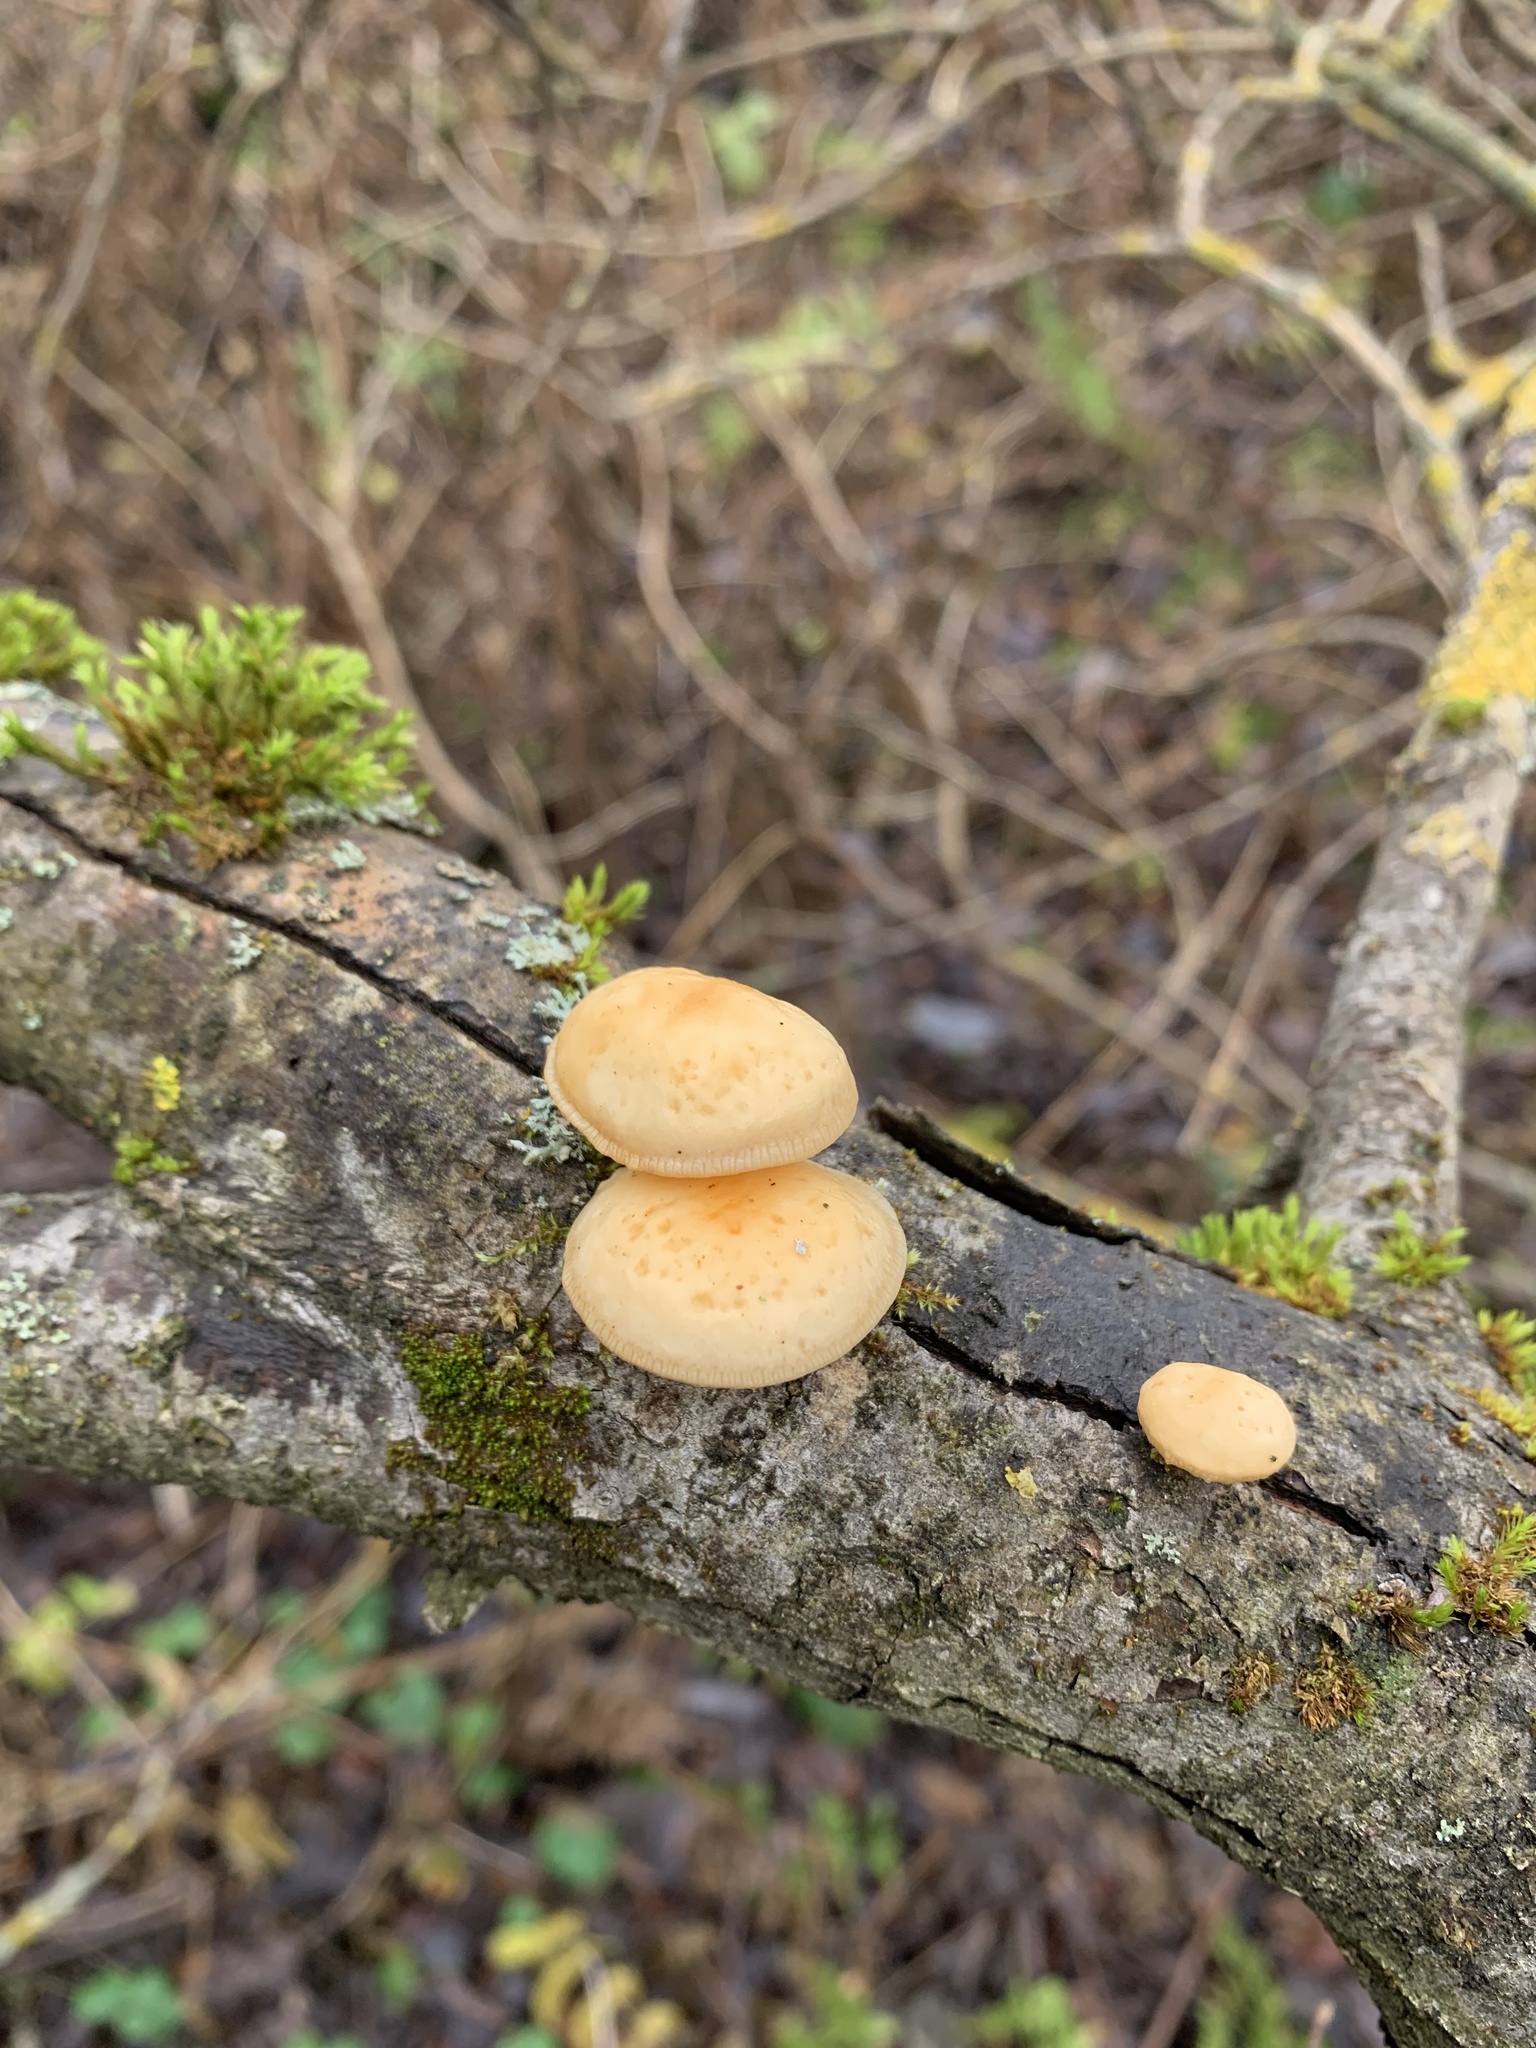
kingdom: Fungi
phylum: Basidiomycota
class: Agaricomycetes
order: Agaricales
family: Physalacriaceae
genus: Flammulina
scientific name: Flammulina
